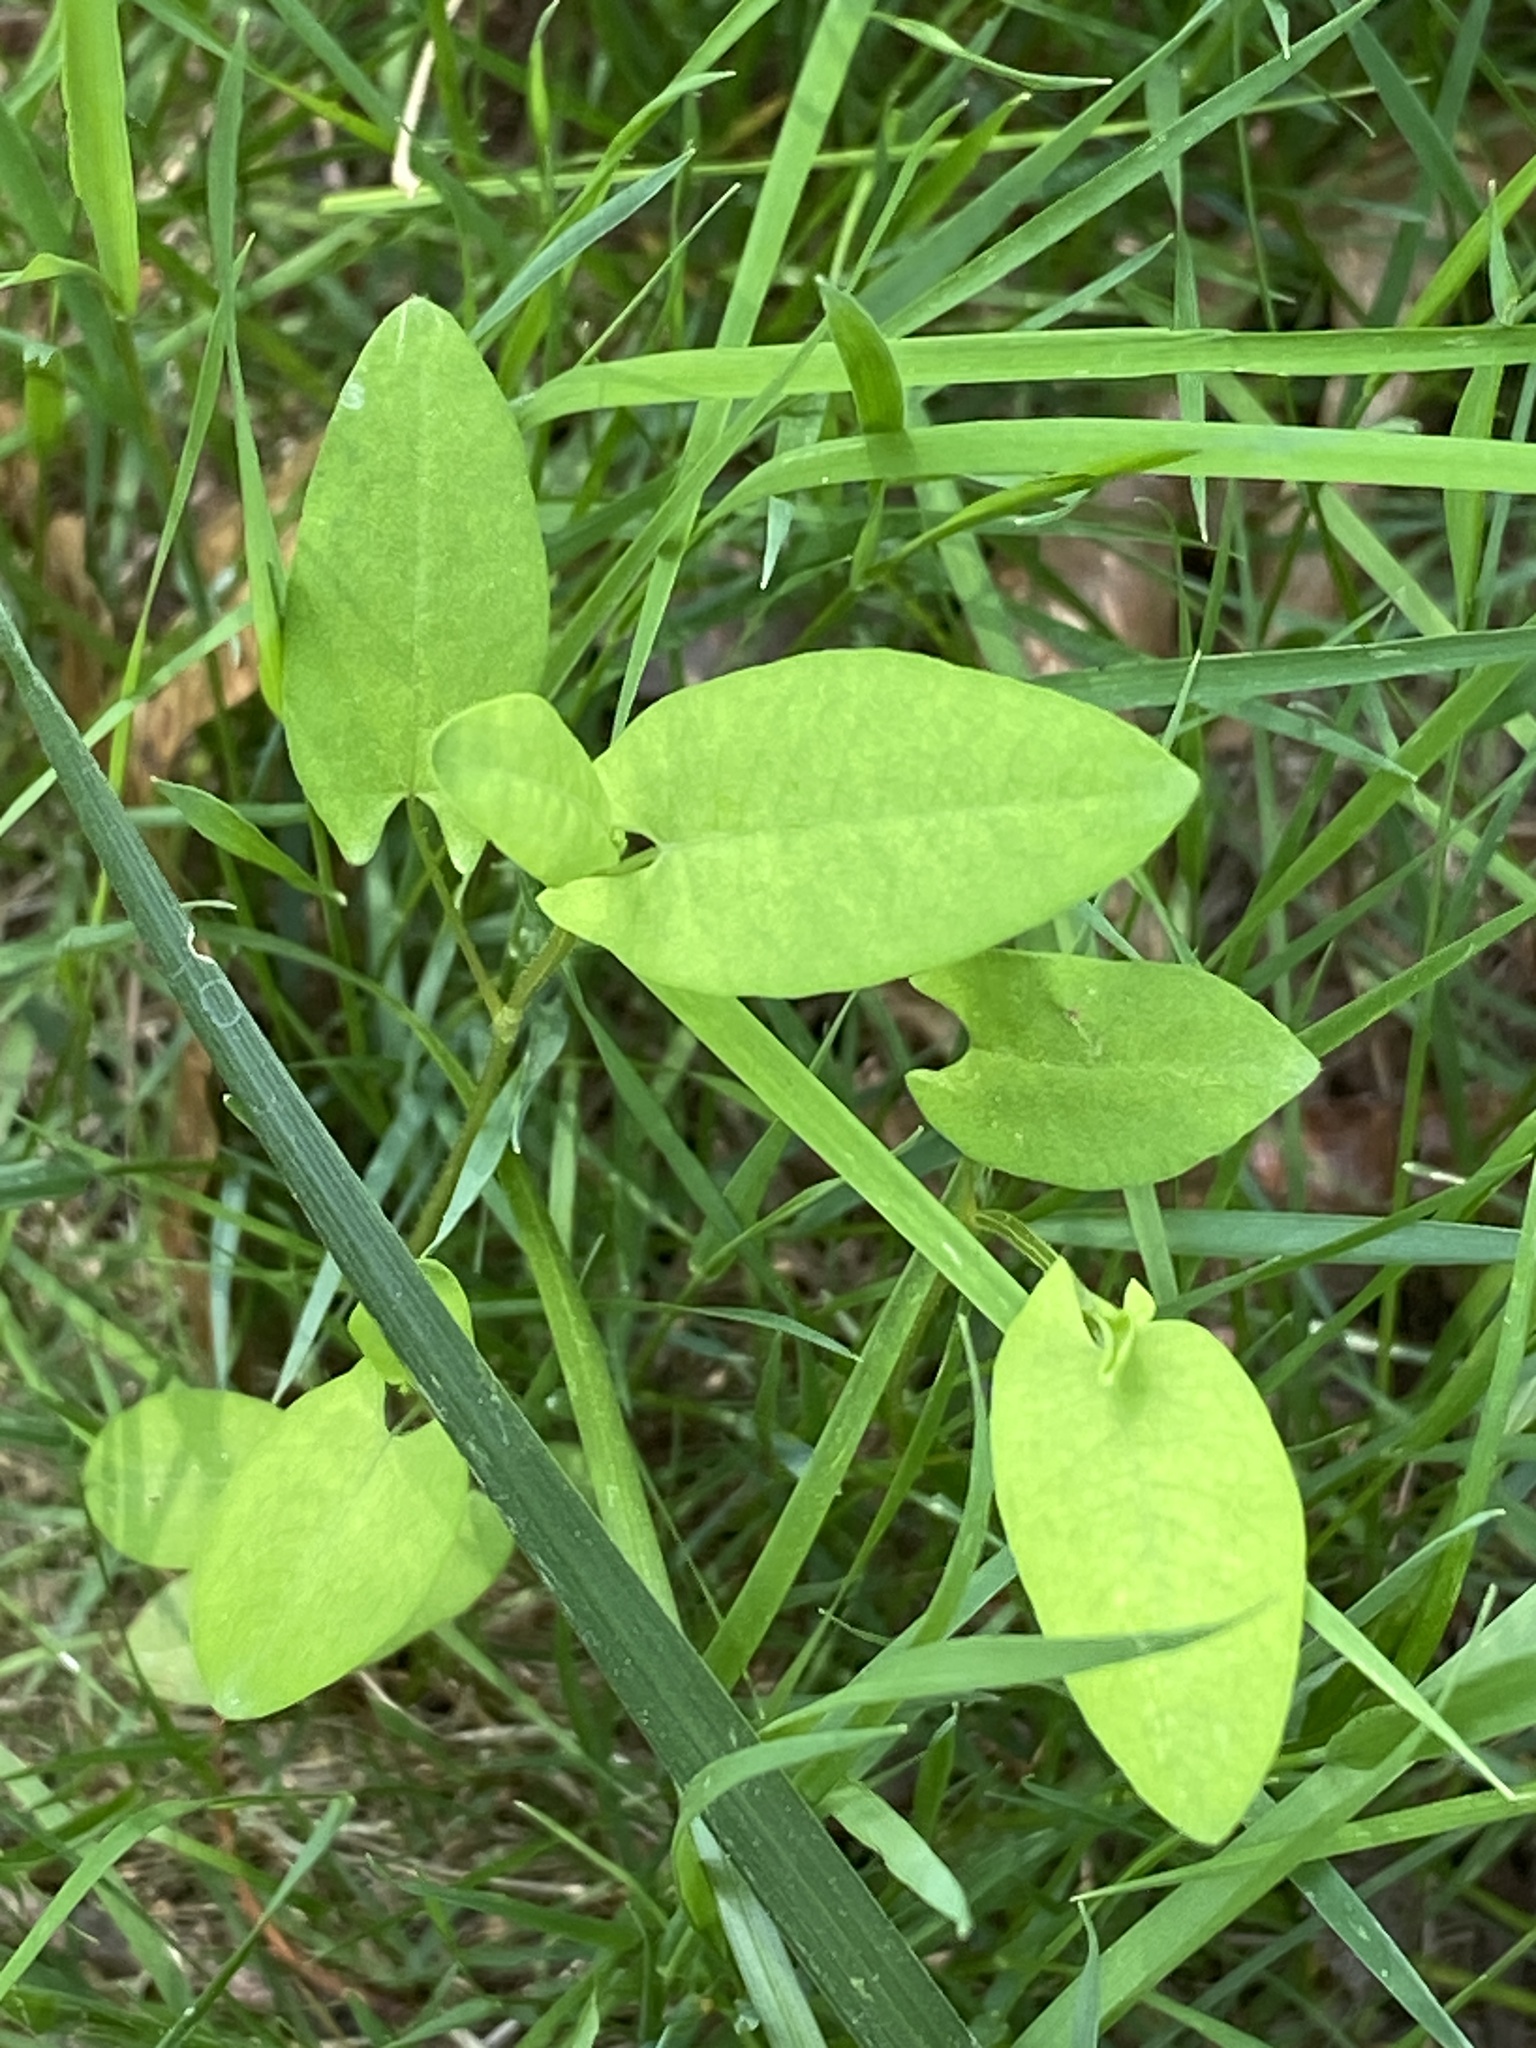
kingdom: Plantae
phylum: Tracheophyta
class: Magnoliopsida
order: Caryophyllales
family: Polygonaceae
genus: Persicaria
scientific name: Persicaria sagittata
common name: American tearthumb
